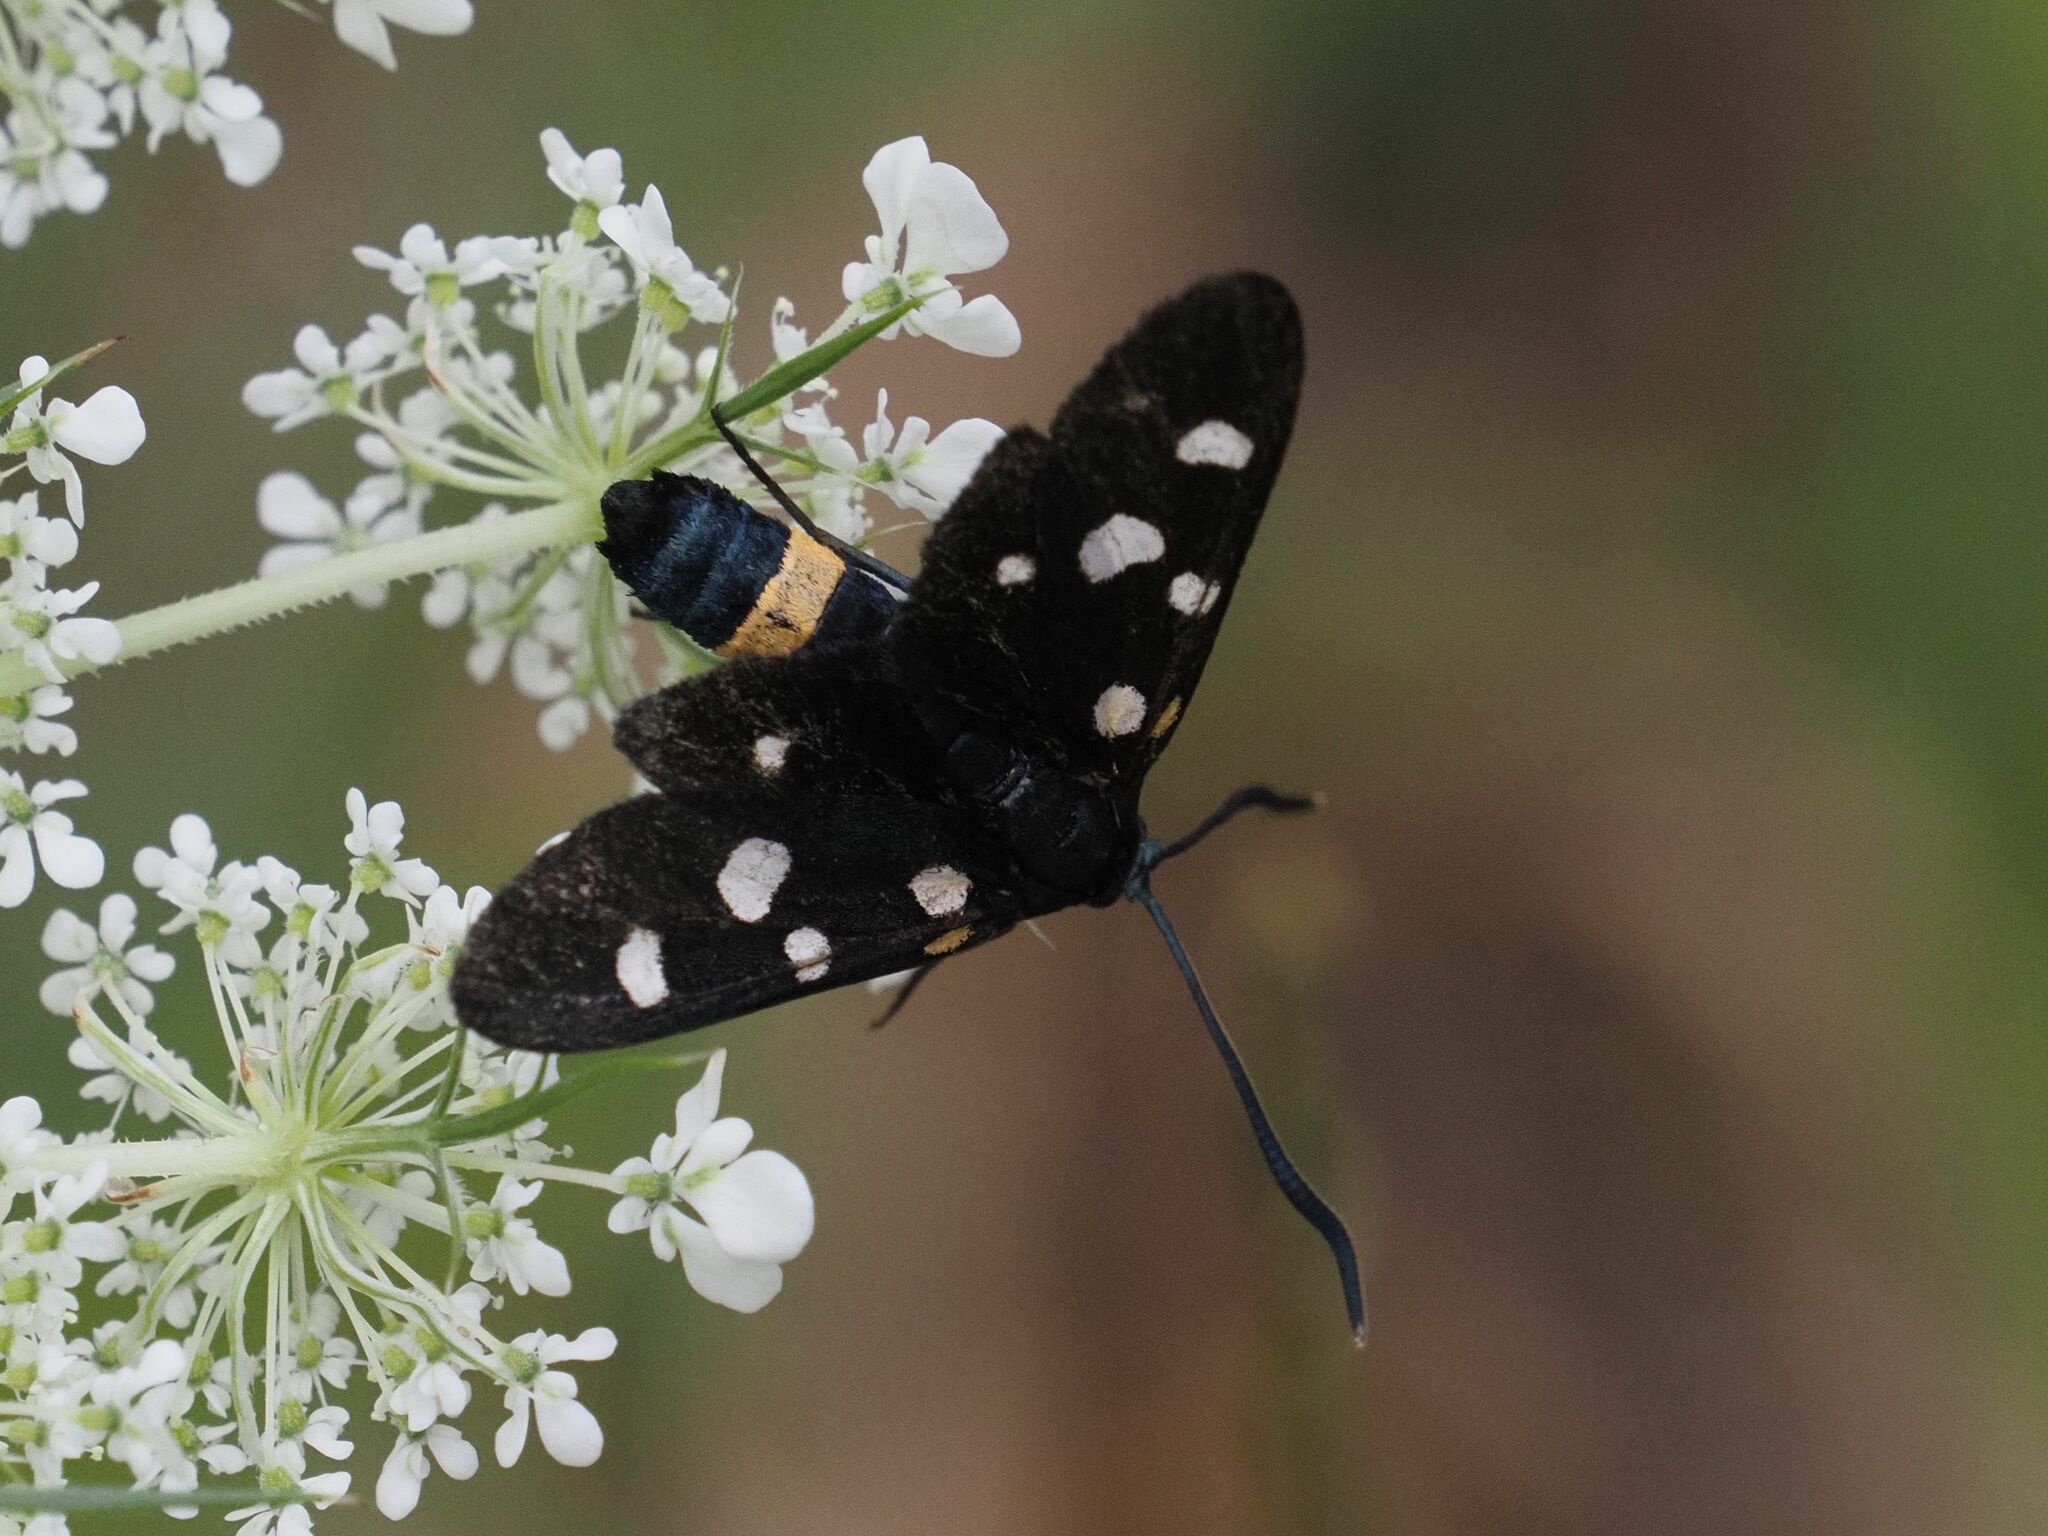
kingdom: Animalia
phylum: Arthropoda
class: Insecta
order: Lepidoptera
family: Zygaenidae
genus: Zygaena
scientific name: Zygaena ephialtes
